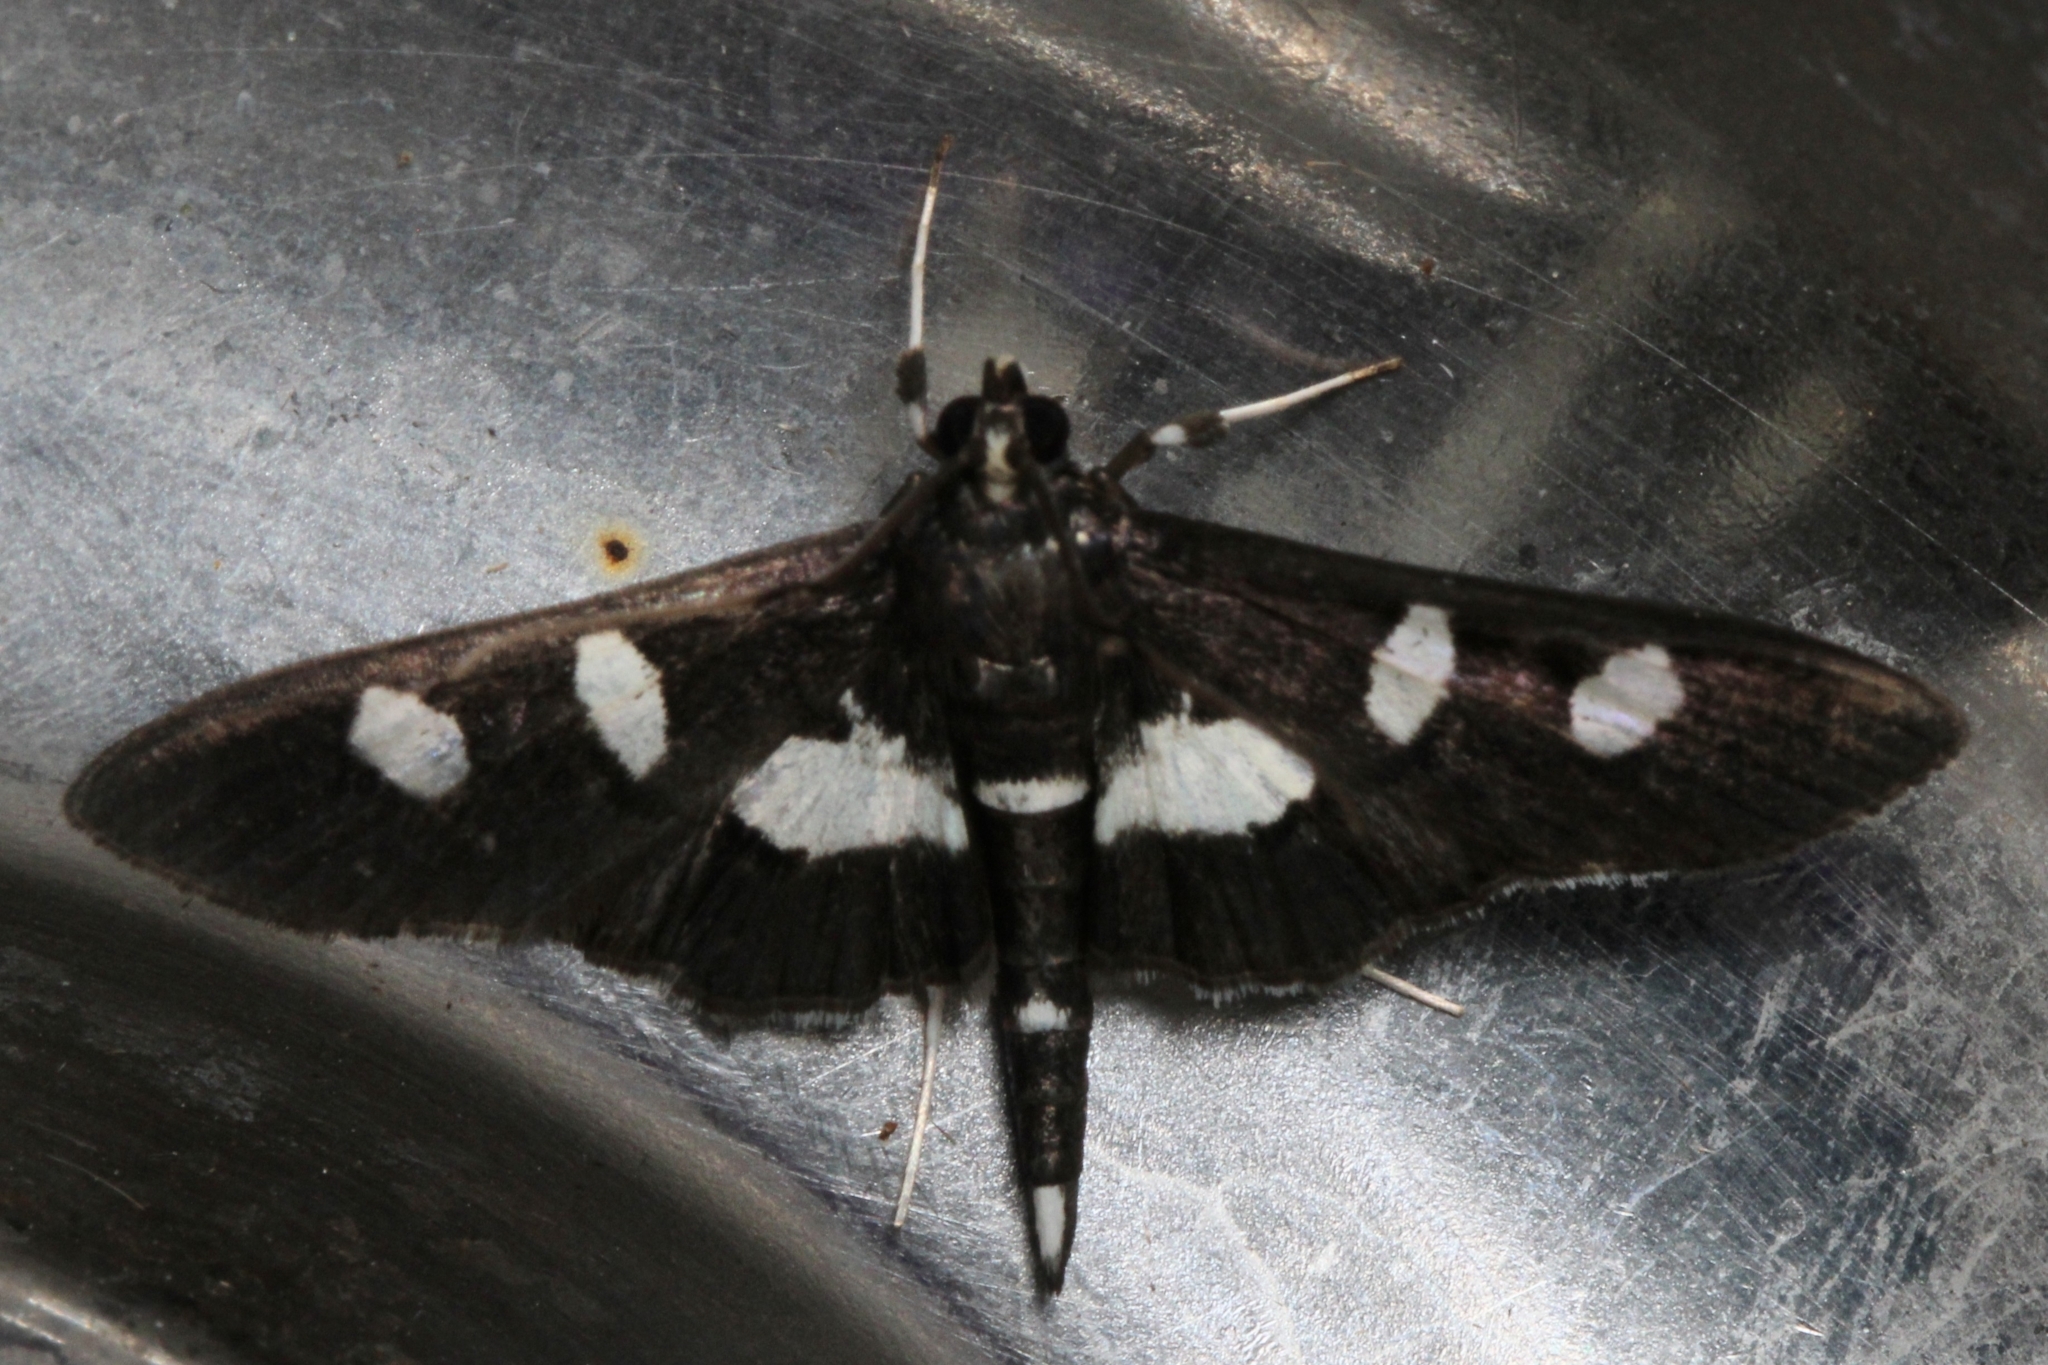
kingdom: Animalia
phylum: Arthropoda
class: Insecta
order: Lepidoptera
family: Crambidae
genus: Desmia
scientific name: Desmia
